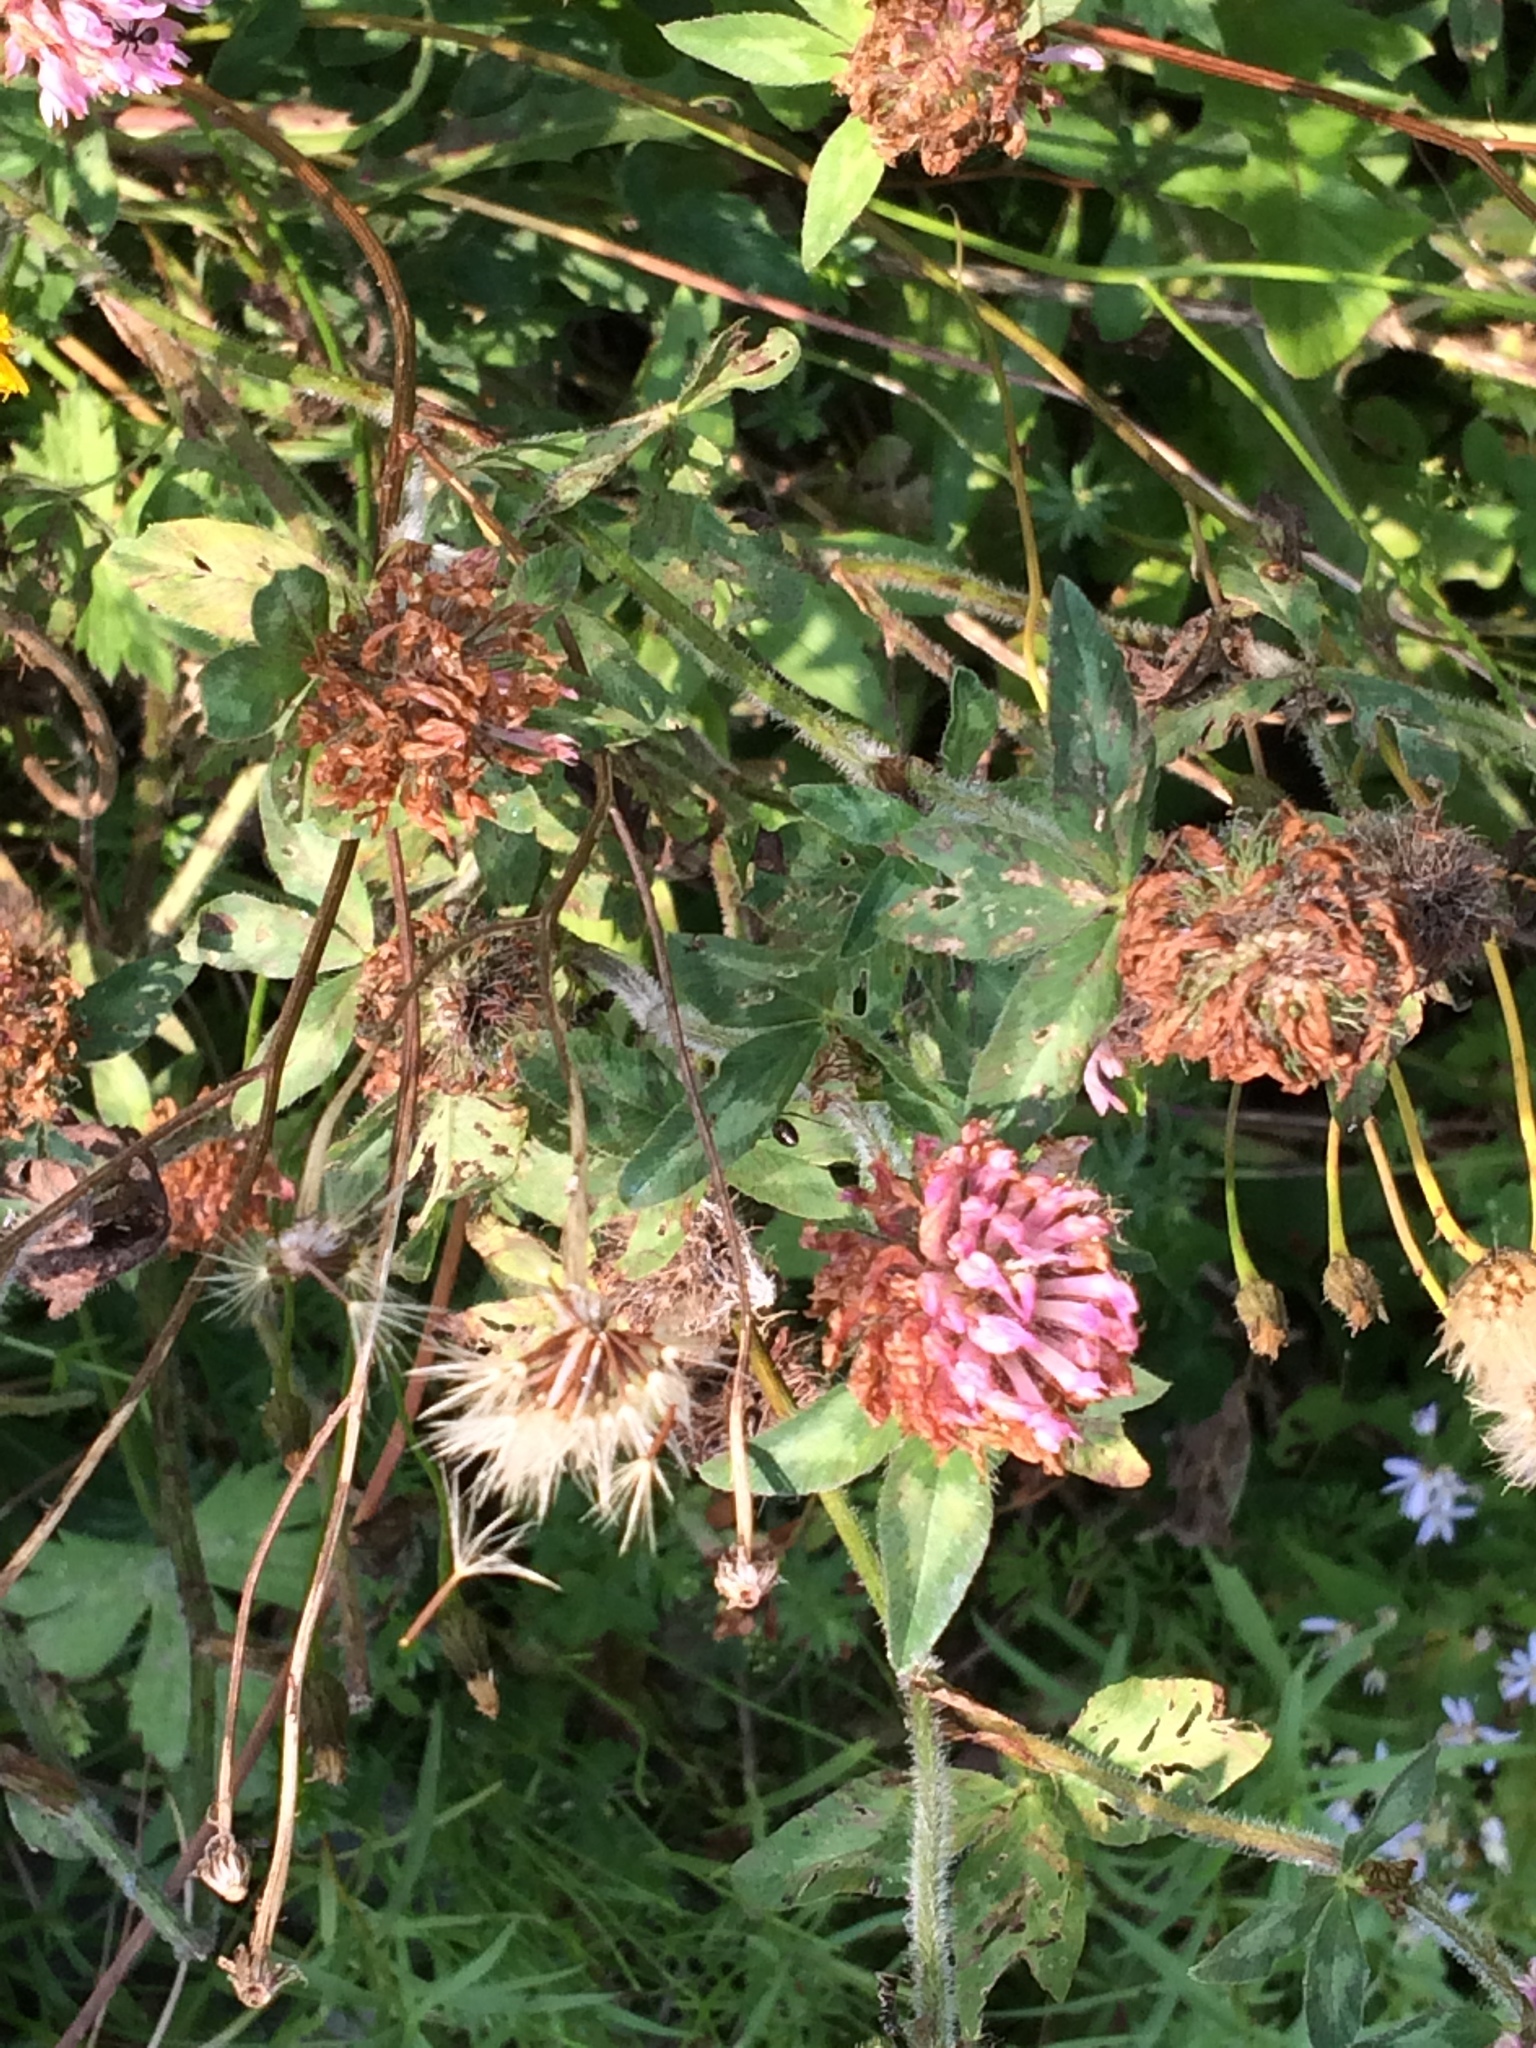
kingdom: Plantae
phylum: Tracheophyta
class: Magnoliopsida
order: Fabales
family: Fabaceae
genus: Trifolium
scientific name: Trifolium pratense
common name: Red clover
